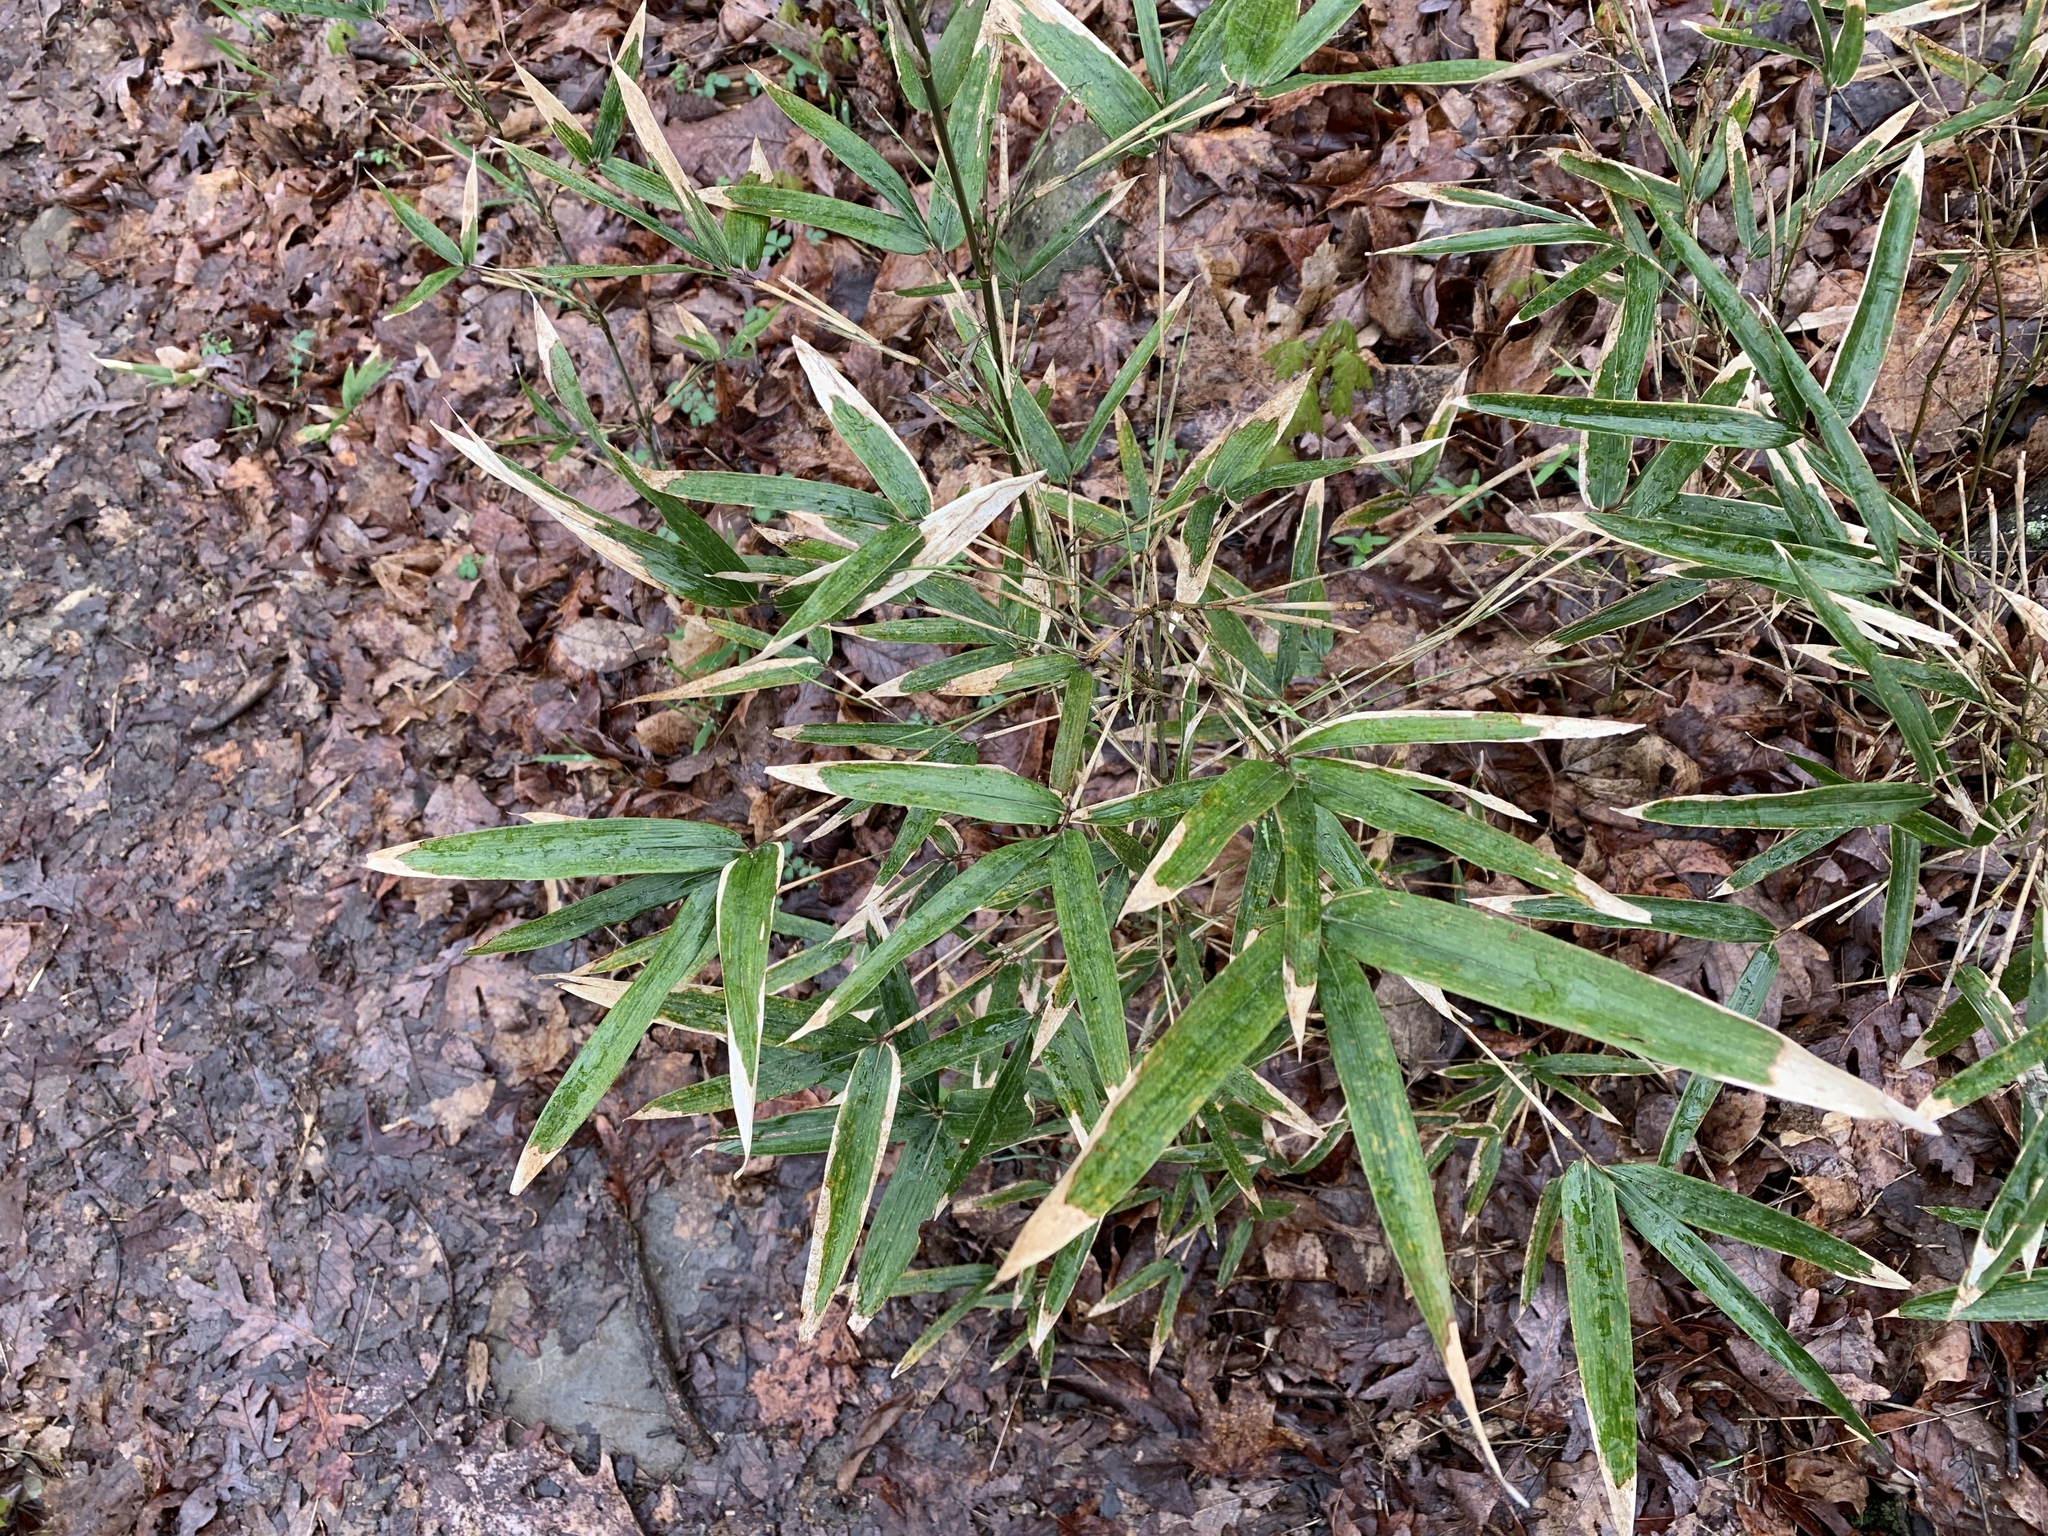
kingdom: Plantae
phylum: Tracheophyta
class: Liliopsida
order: Poales
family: Poaceae
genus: Arundinaria
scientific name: Arundinaria gigantea
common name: Giant cane
